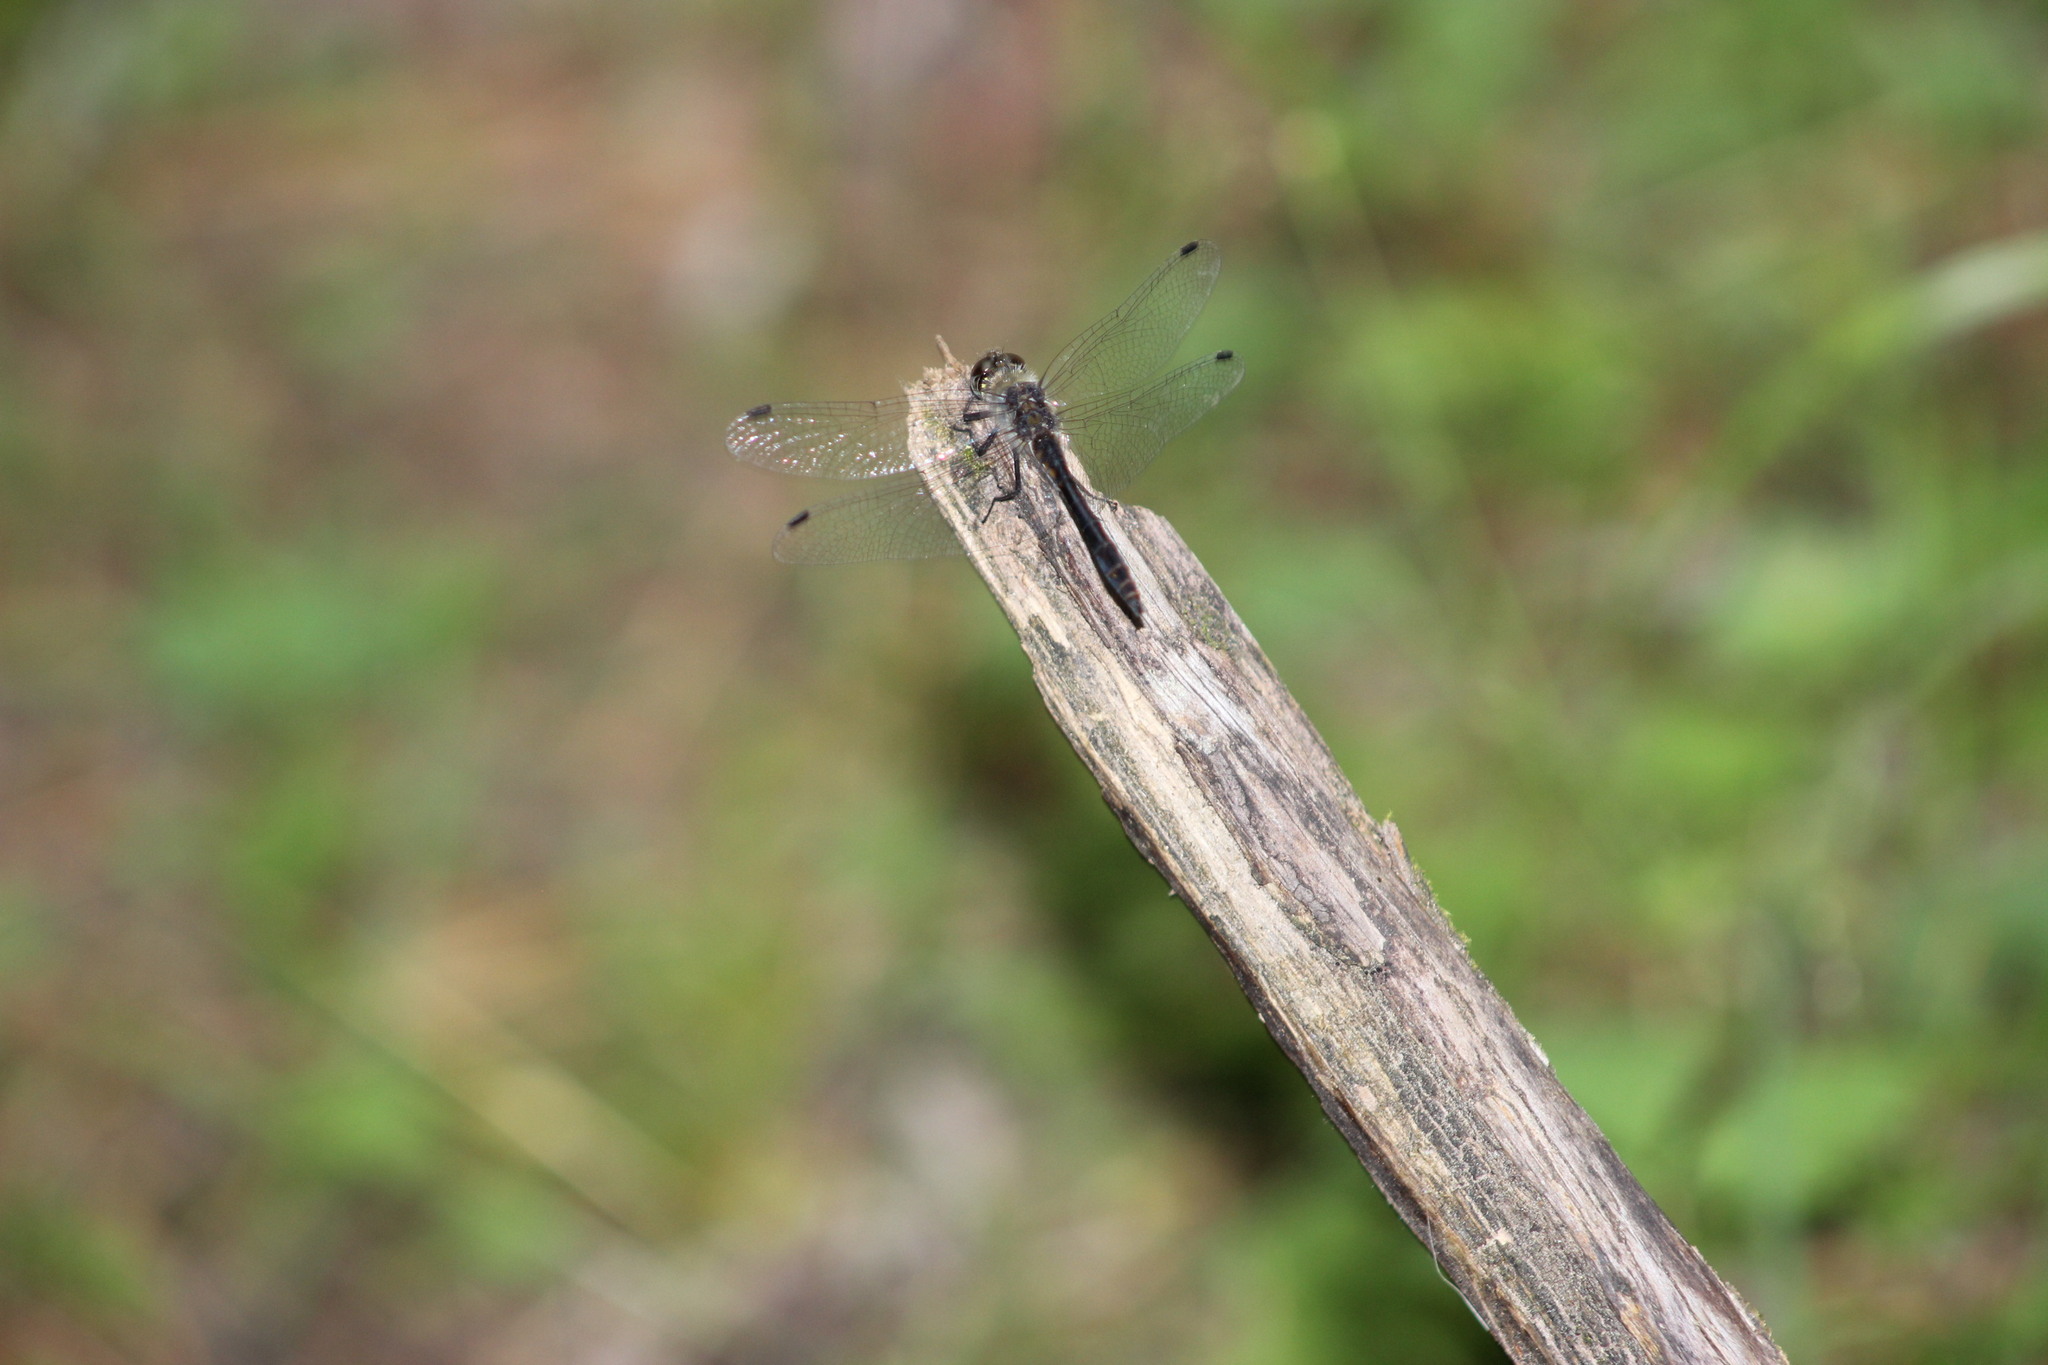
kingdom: Animalia
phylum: Arthropoda
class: Insecta
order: Odonata
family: Libellulidae
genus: Sympetrum
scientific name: Sympetrum danae
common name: Black darter
